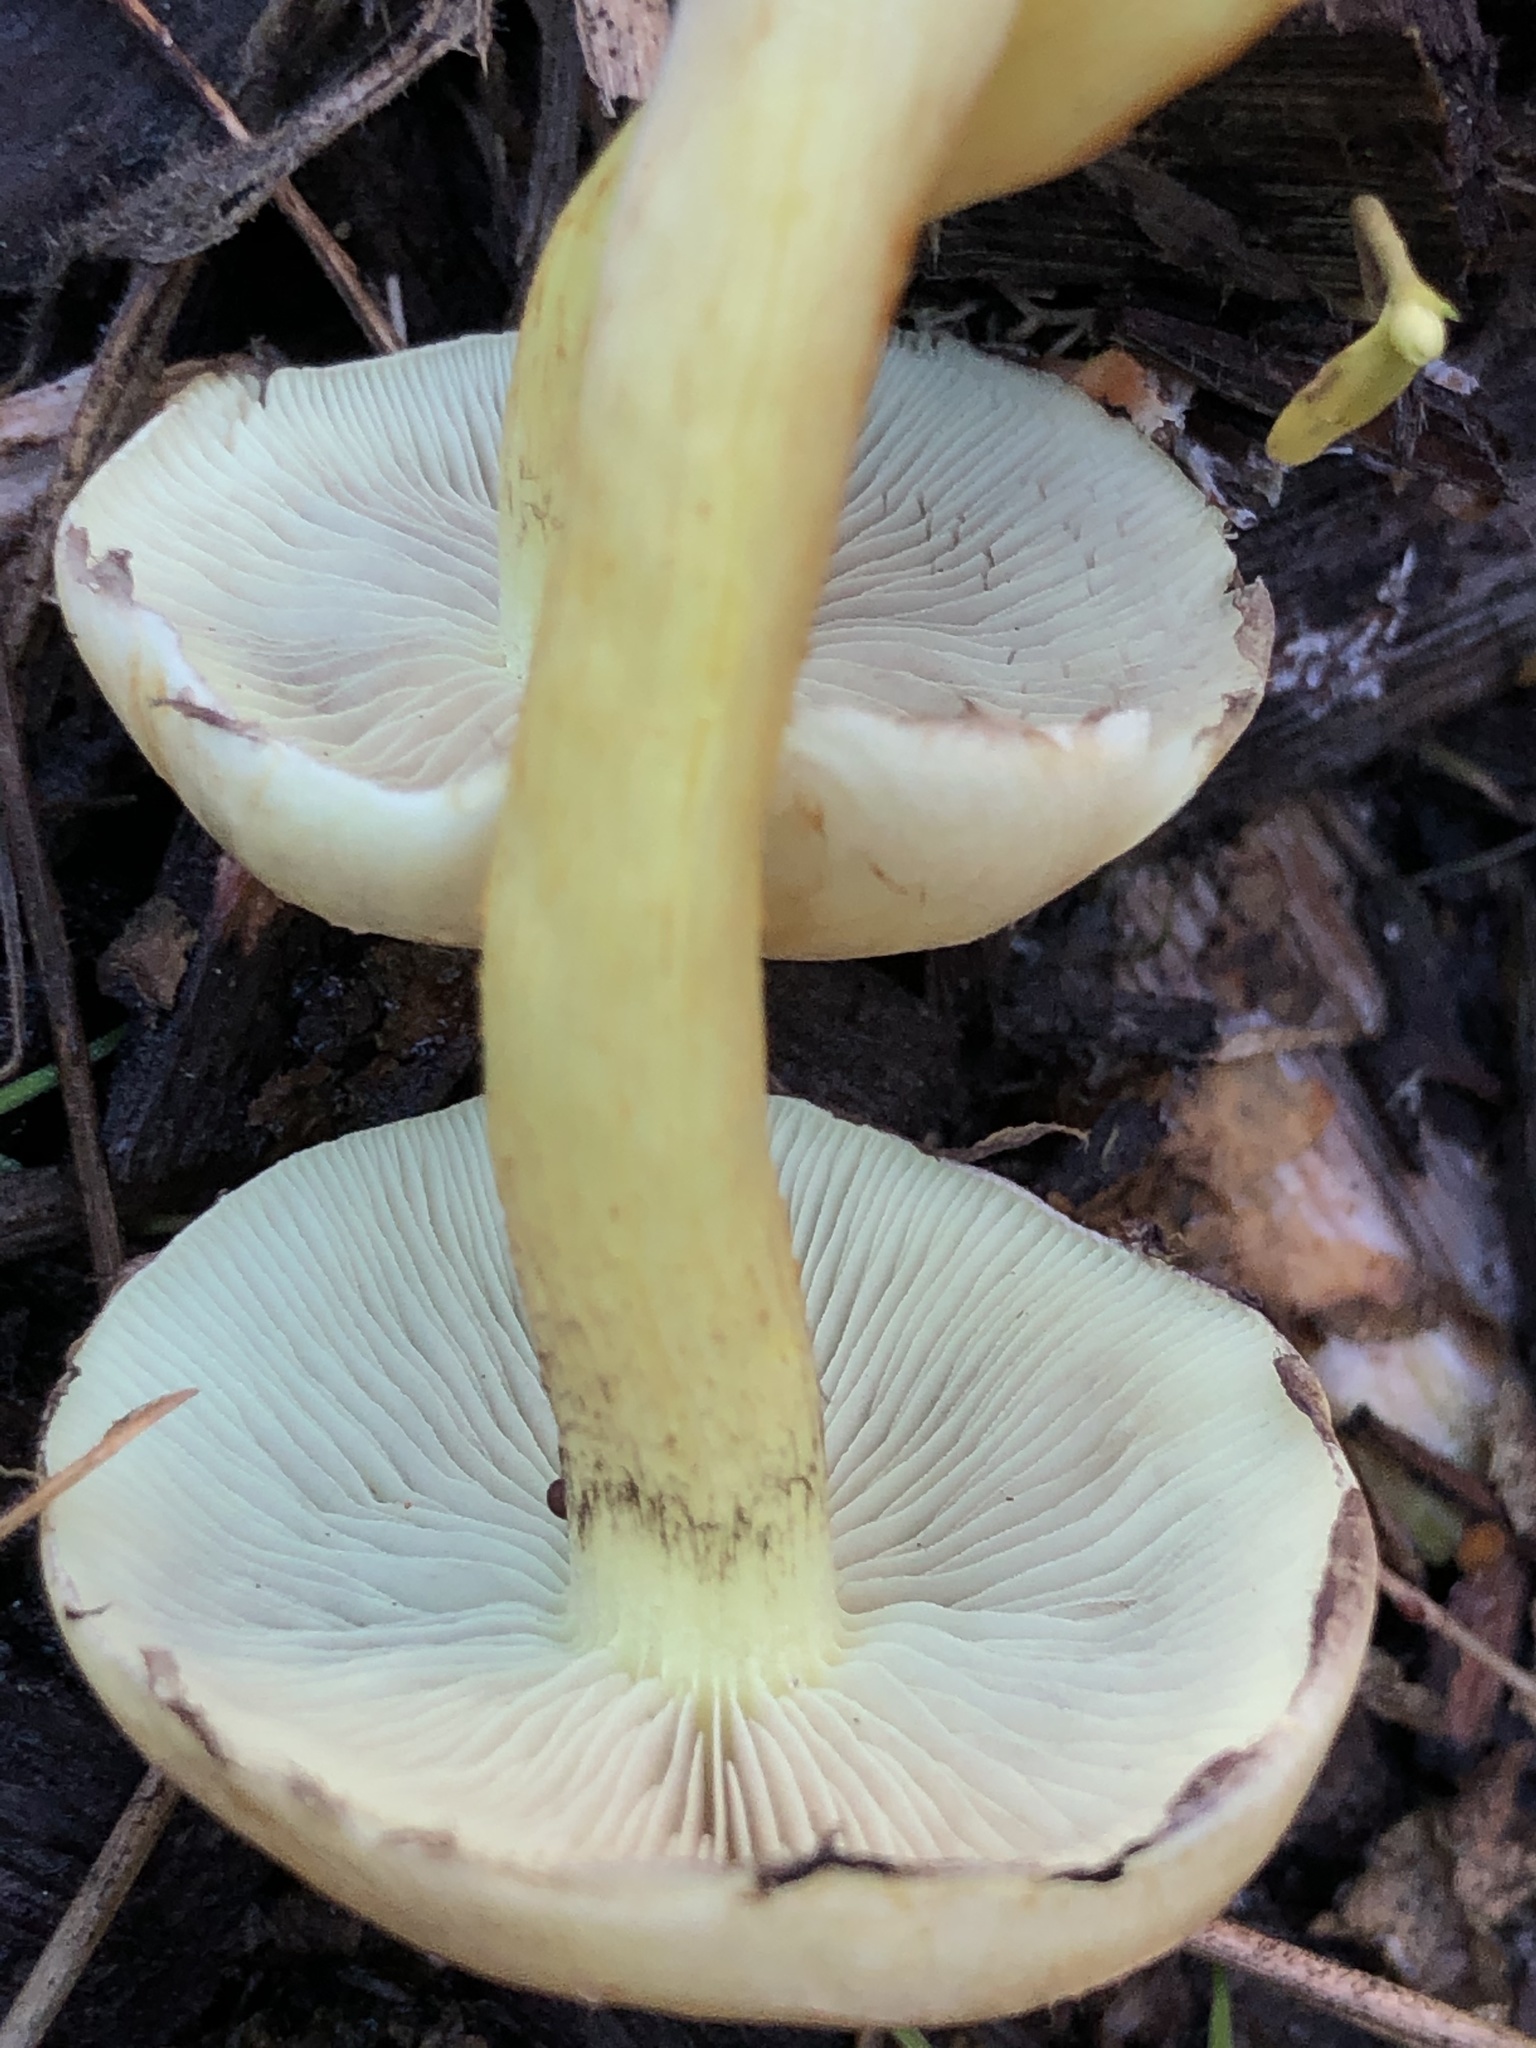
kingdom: Fungi
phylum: Basidiomycota
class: Agaricomycetes
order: Agaricales
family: Strophariaceae
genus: Hypholoma
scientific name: Hypholoma fasciculare
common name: Sulphur tuft
